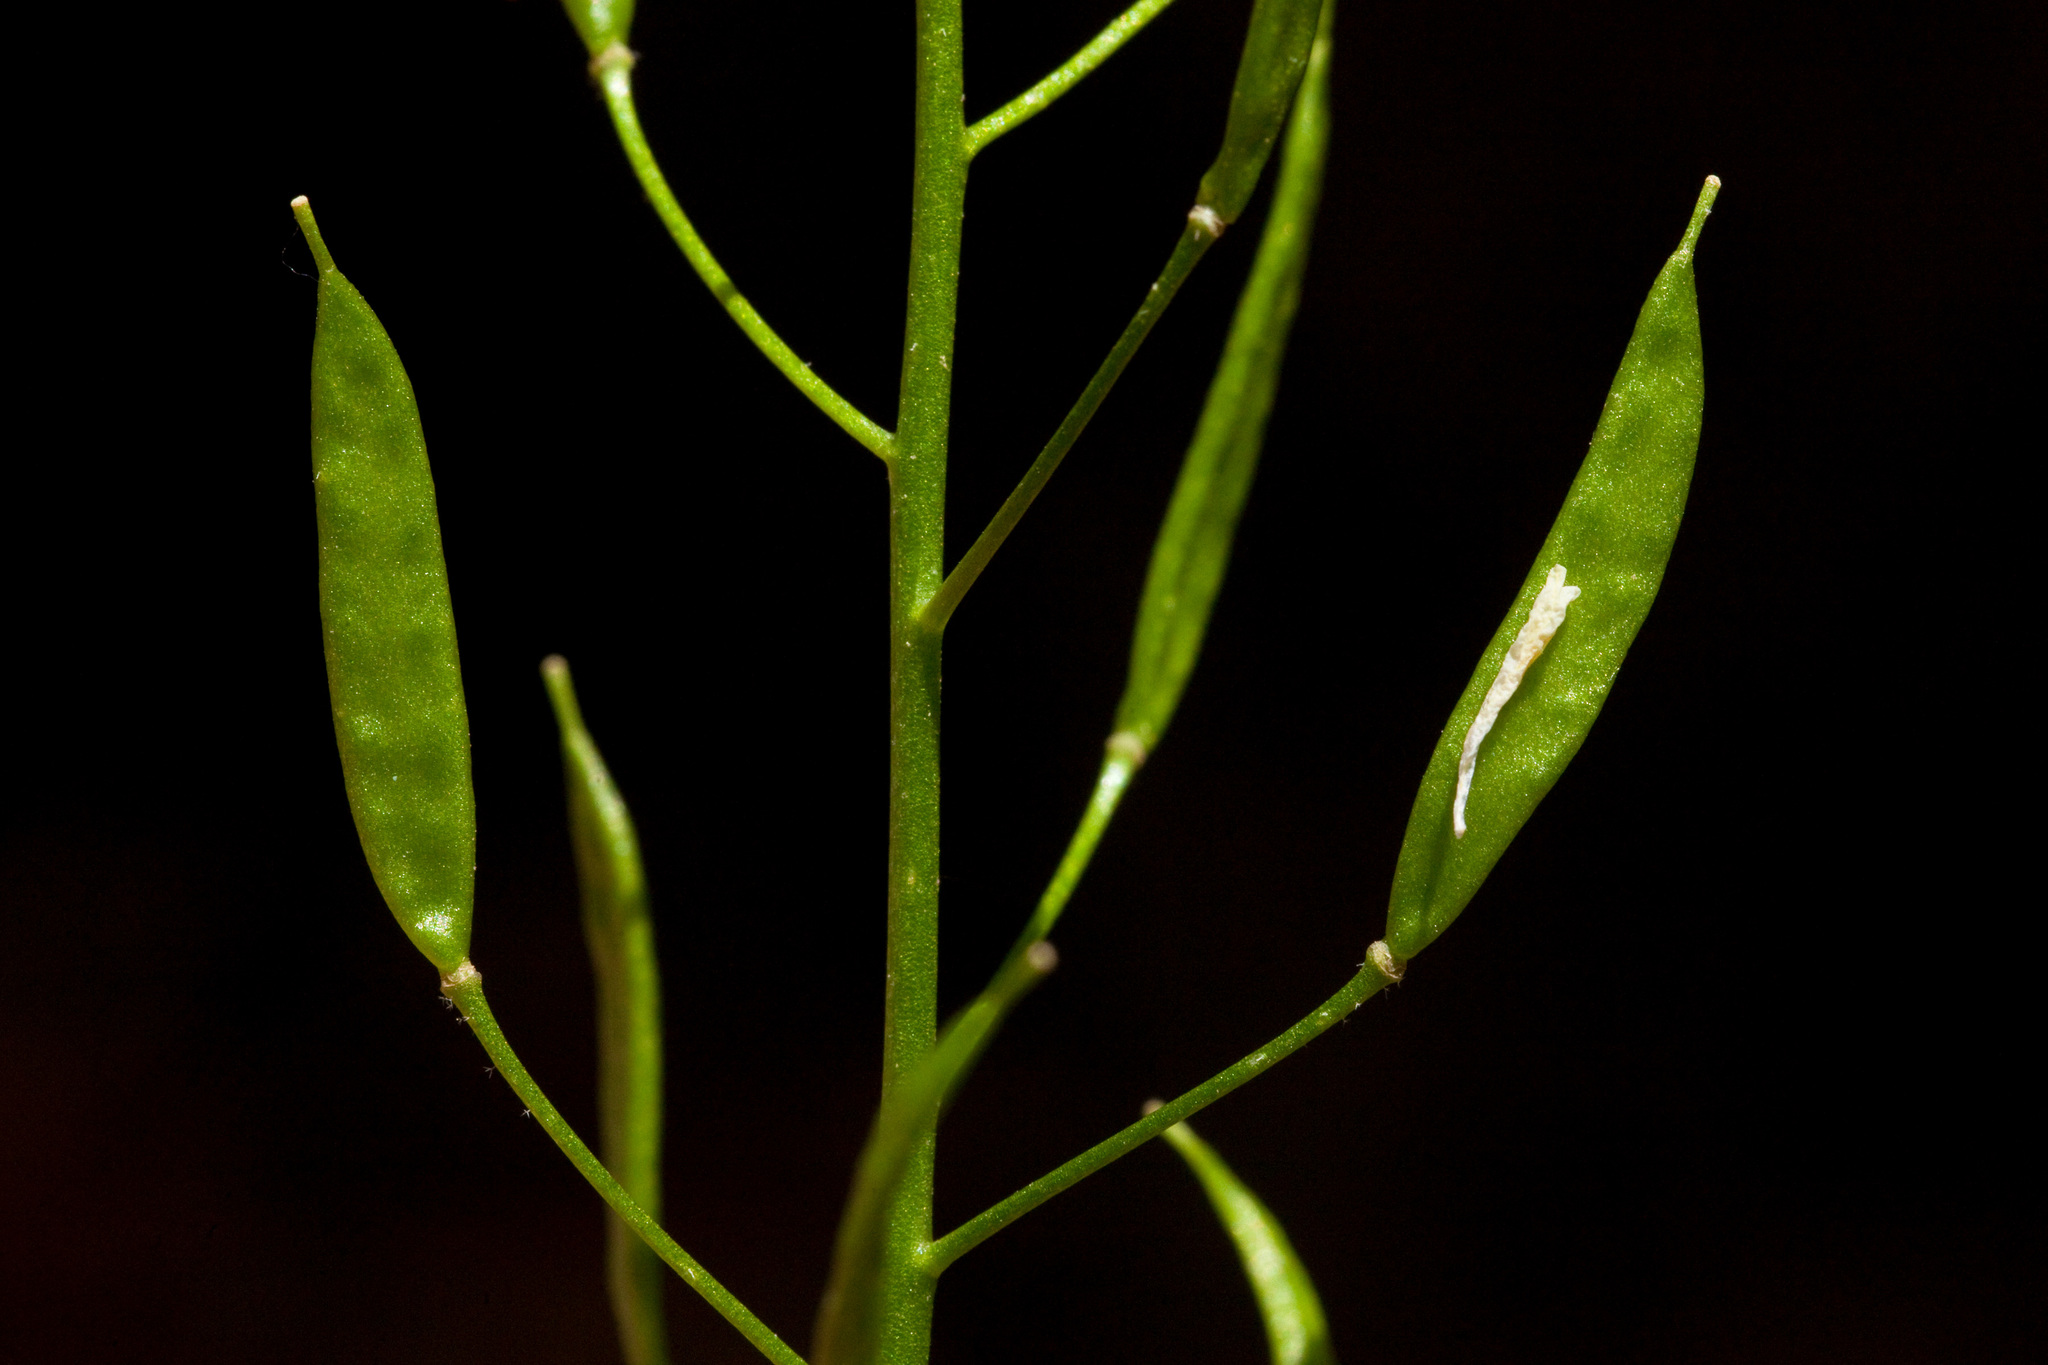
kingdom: Plantae
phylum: Tracheophyta
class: Magnoliopsida
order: Brassicales
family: Brassicaceae
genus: Draba
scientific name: Draba mogollonica
